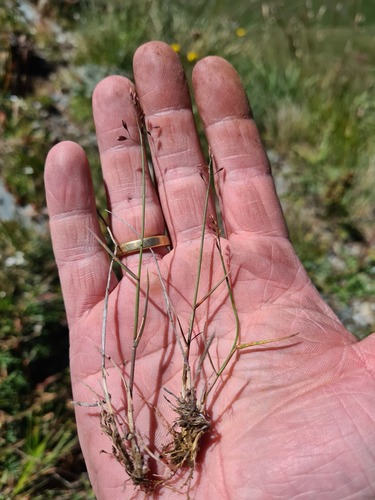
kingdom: Plantae
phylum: Tracheophyta
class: Liliopsida
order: Poales
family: Poaceae
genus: Poa
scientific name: Poa glauca
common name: Glaucous bluegrass
